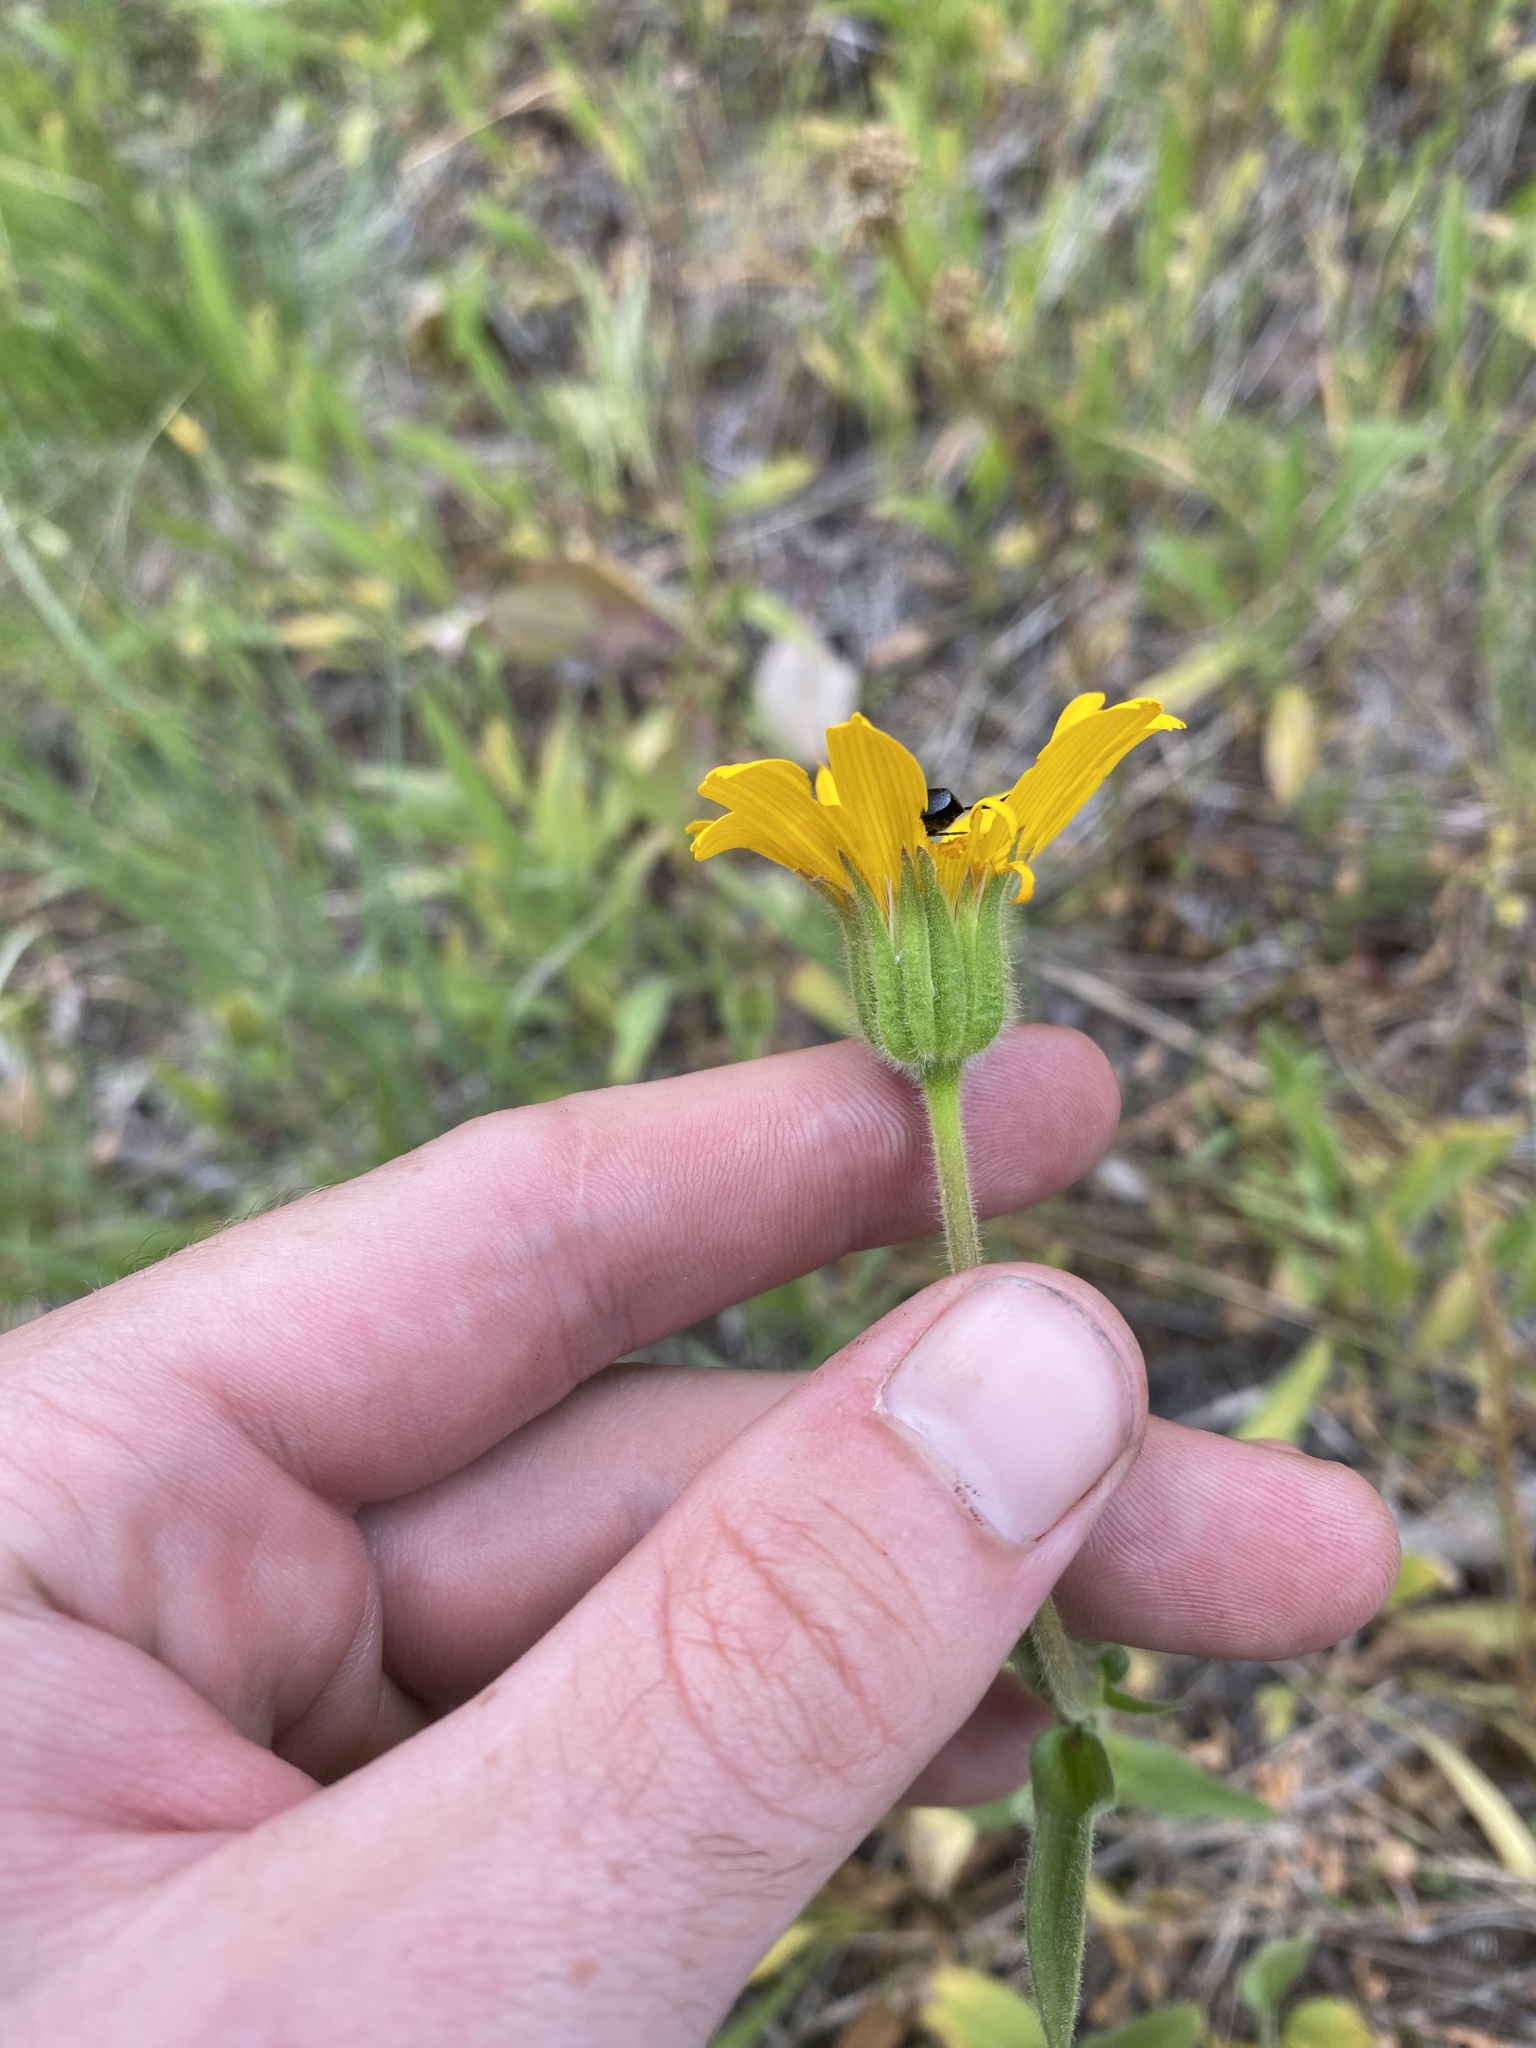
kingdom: Plantae
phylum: Tracheophyta
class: Magnoliopsida
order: Asterales
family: Asteraceae
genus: Arnica
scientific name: Arnica sororia
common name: Twin arnica
